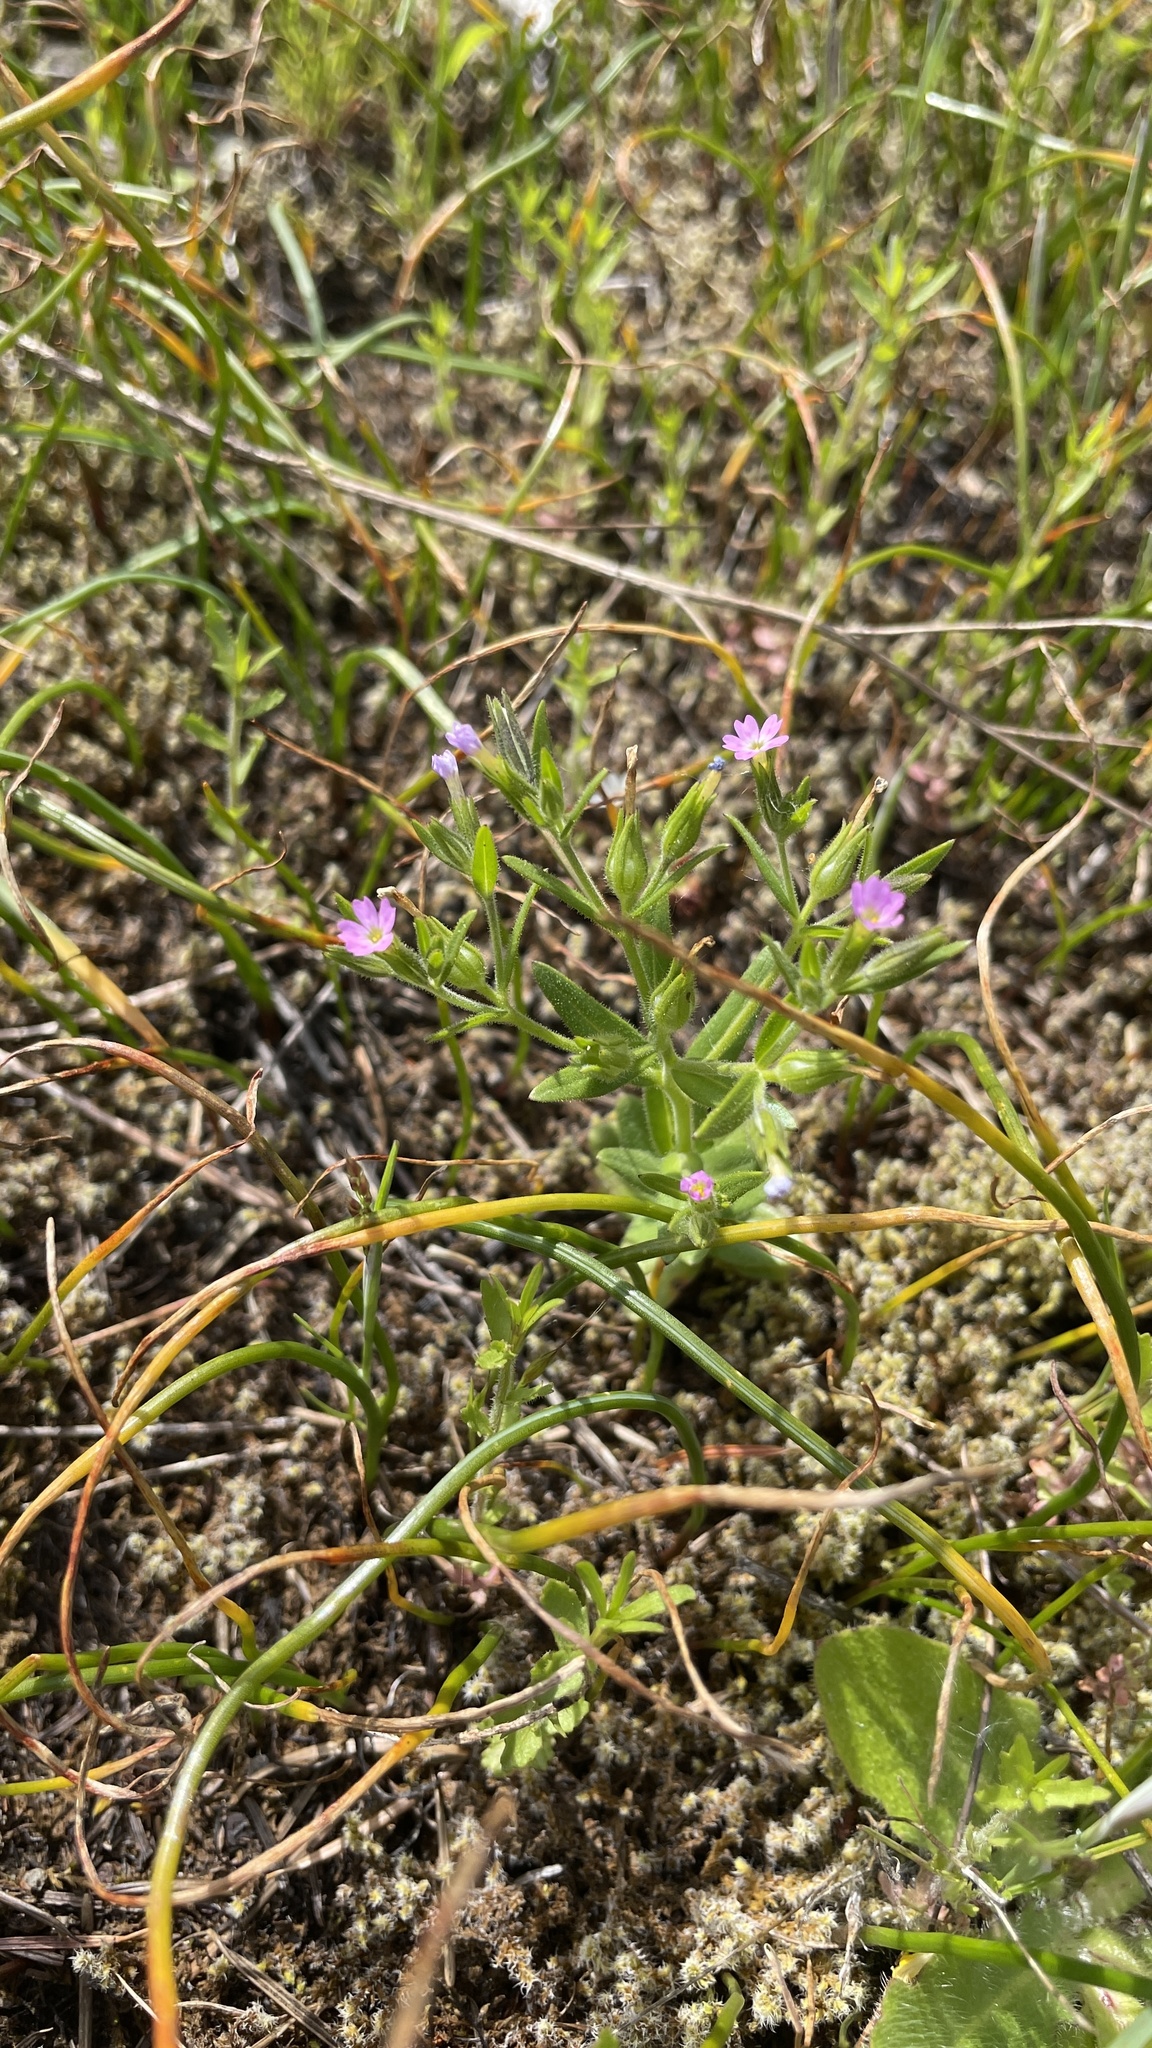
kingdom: Plantae
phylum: Tracheophyta
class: Magnoliopsida
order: Ericales
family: Polemoniaceae
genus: Phlox
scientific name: Phlox gracilis
